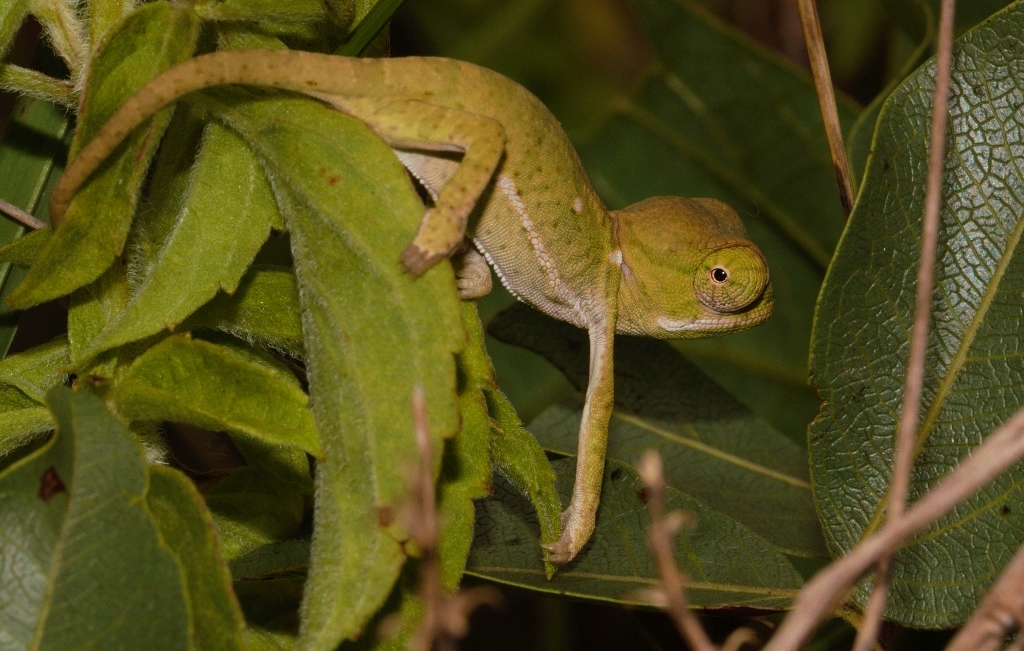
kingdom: Animalia
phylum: Chordata
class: Squamata
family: Chamaeleonidae
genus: Chamaeleo
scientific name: Chamaeleo dilepis
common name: Flapneck chameleon
